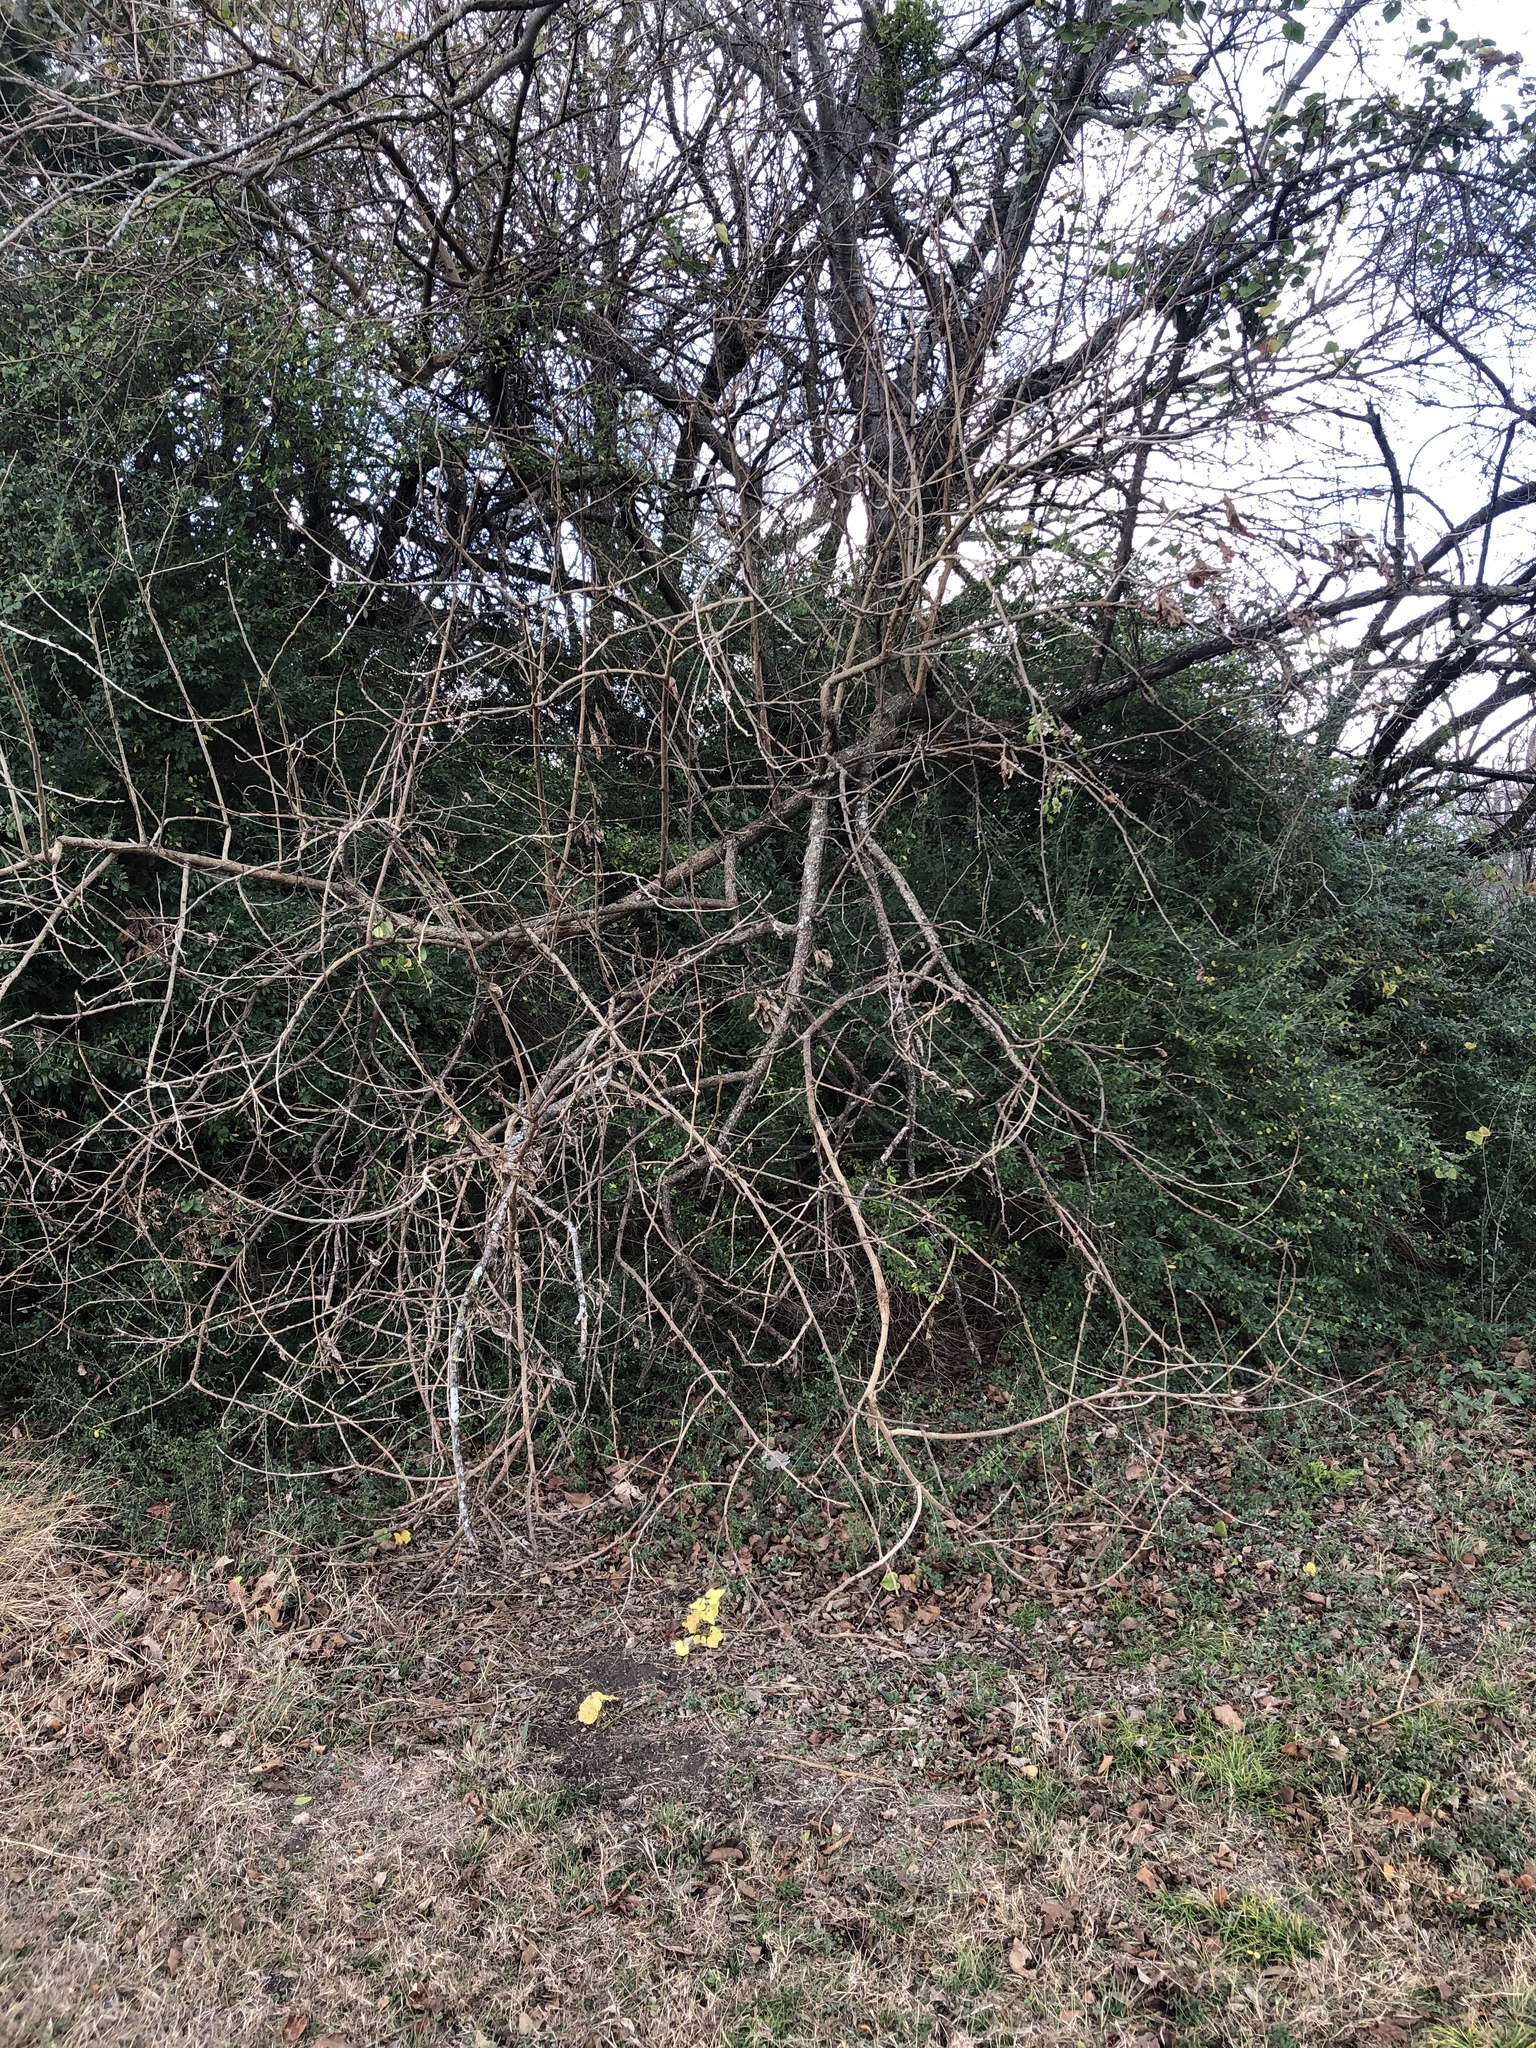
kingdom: Plantae
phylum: Tracheophyta
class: Magnoliopsida
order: Rosales
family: Moraceae
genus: Maclura
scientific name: Maclura pomifera
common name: Osage-orange
